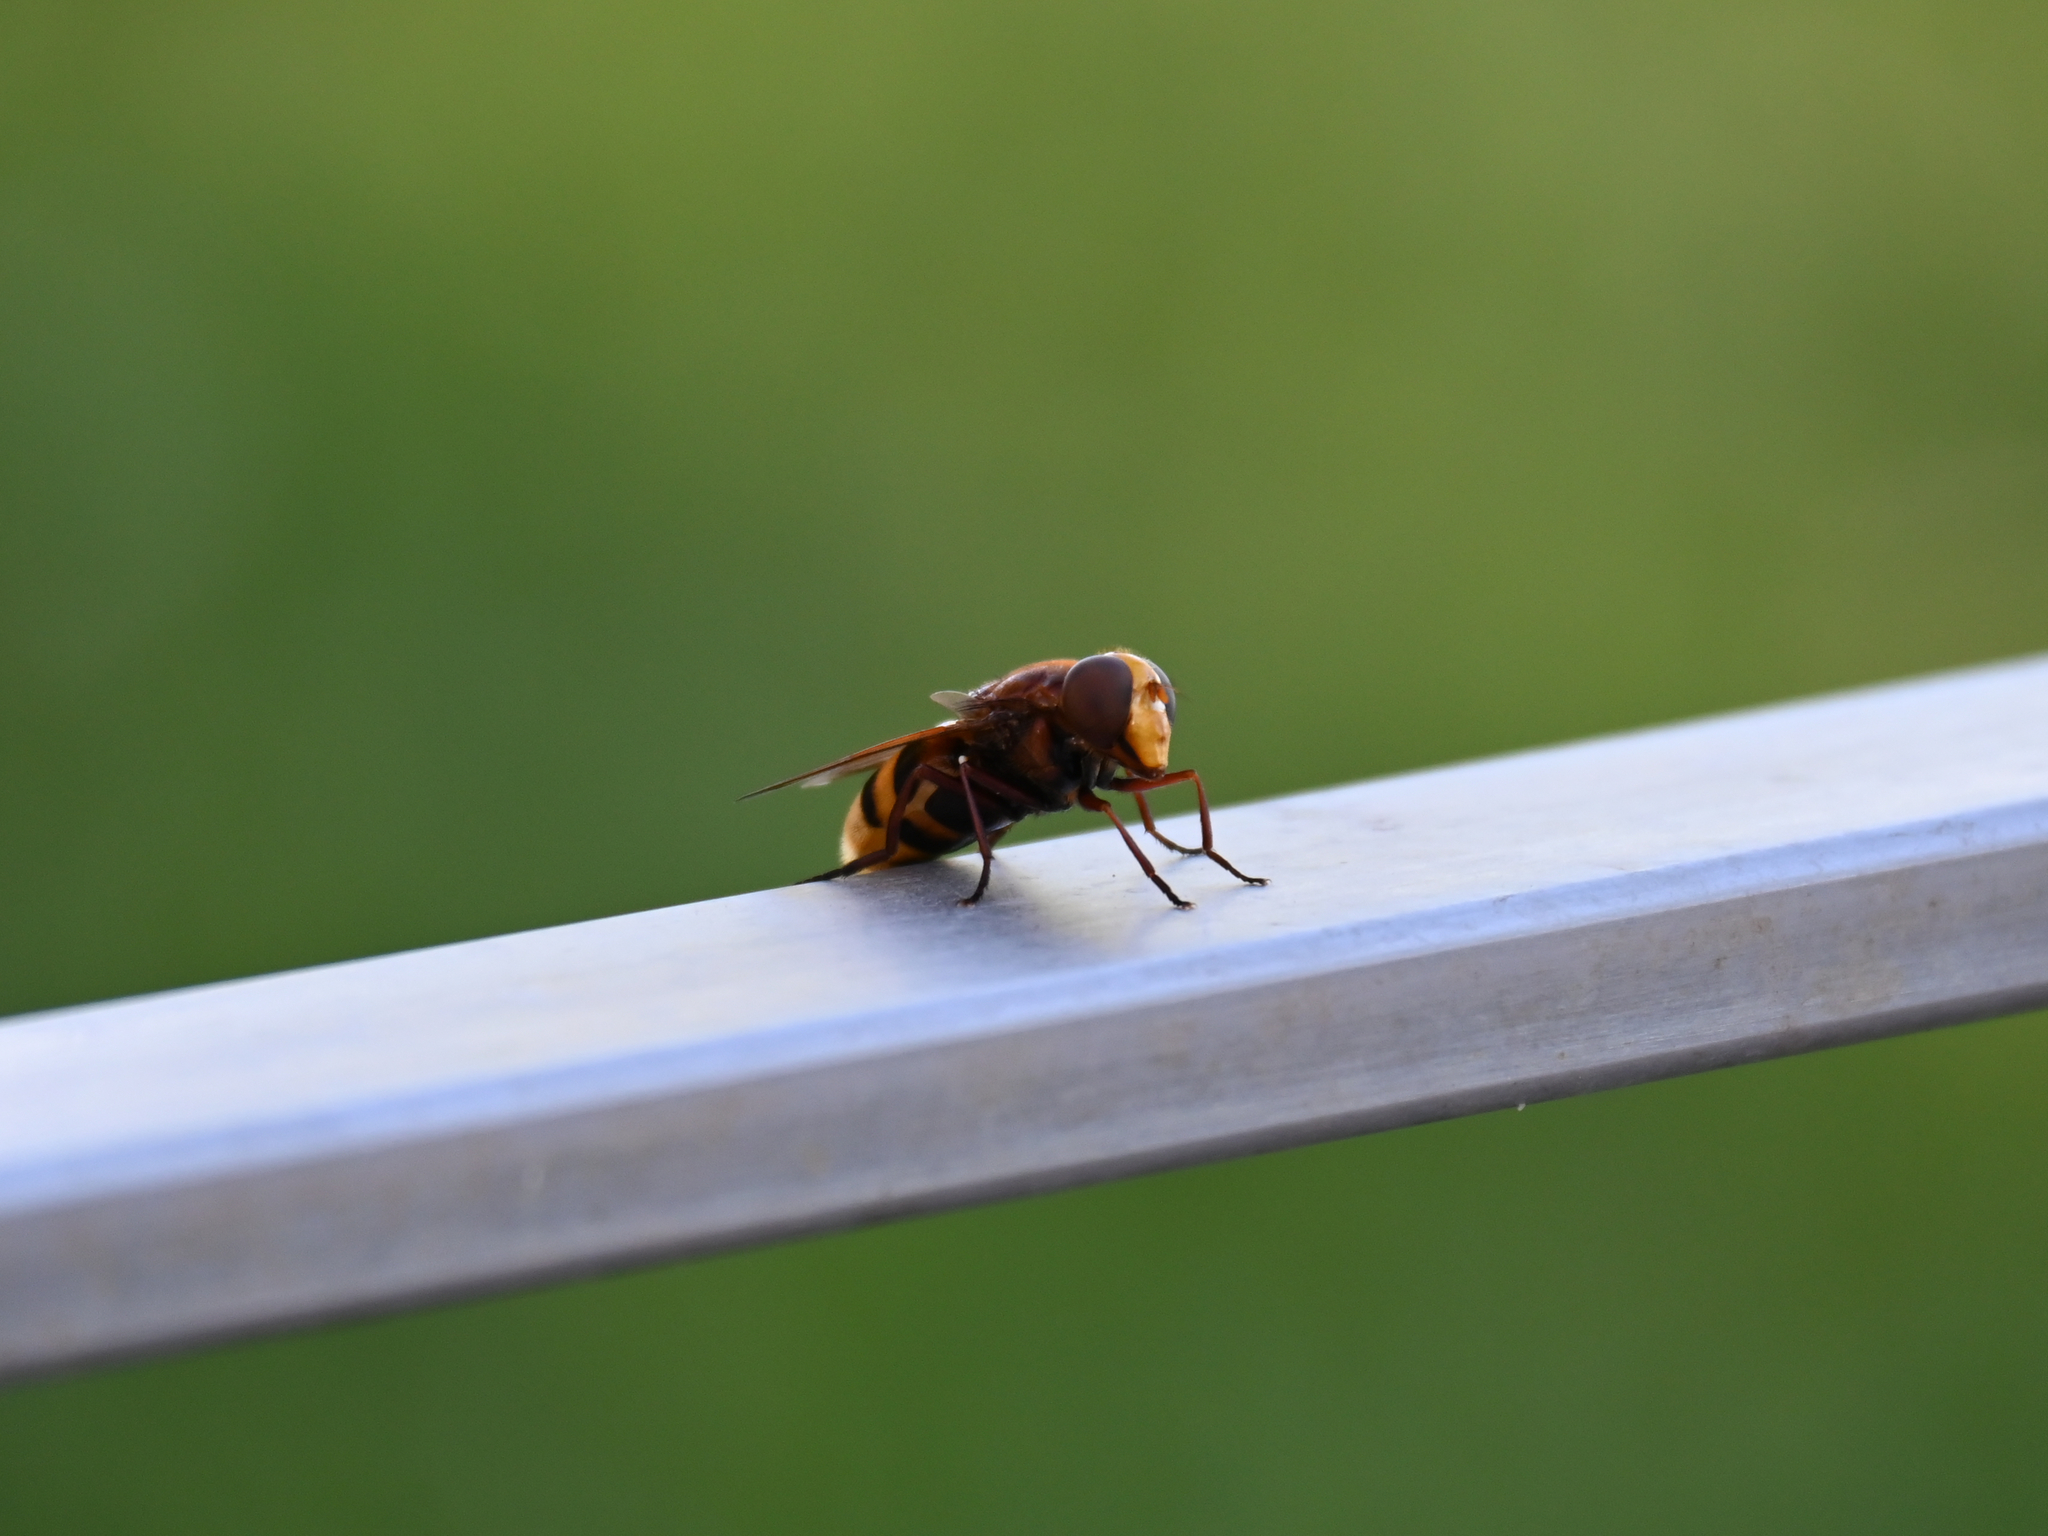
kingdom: Animalia
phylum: Arthropoda
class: Insecta
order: Diptera
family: Syrphidae
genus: Volucella
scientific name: Volucella zonaria
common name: Hornet hoverfly
